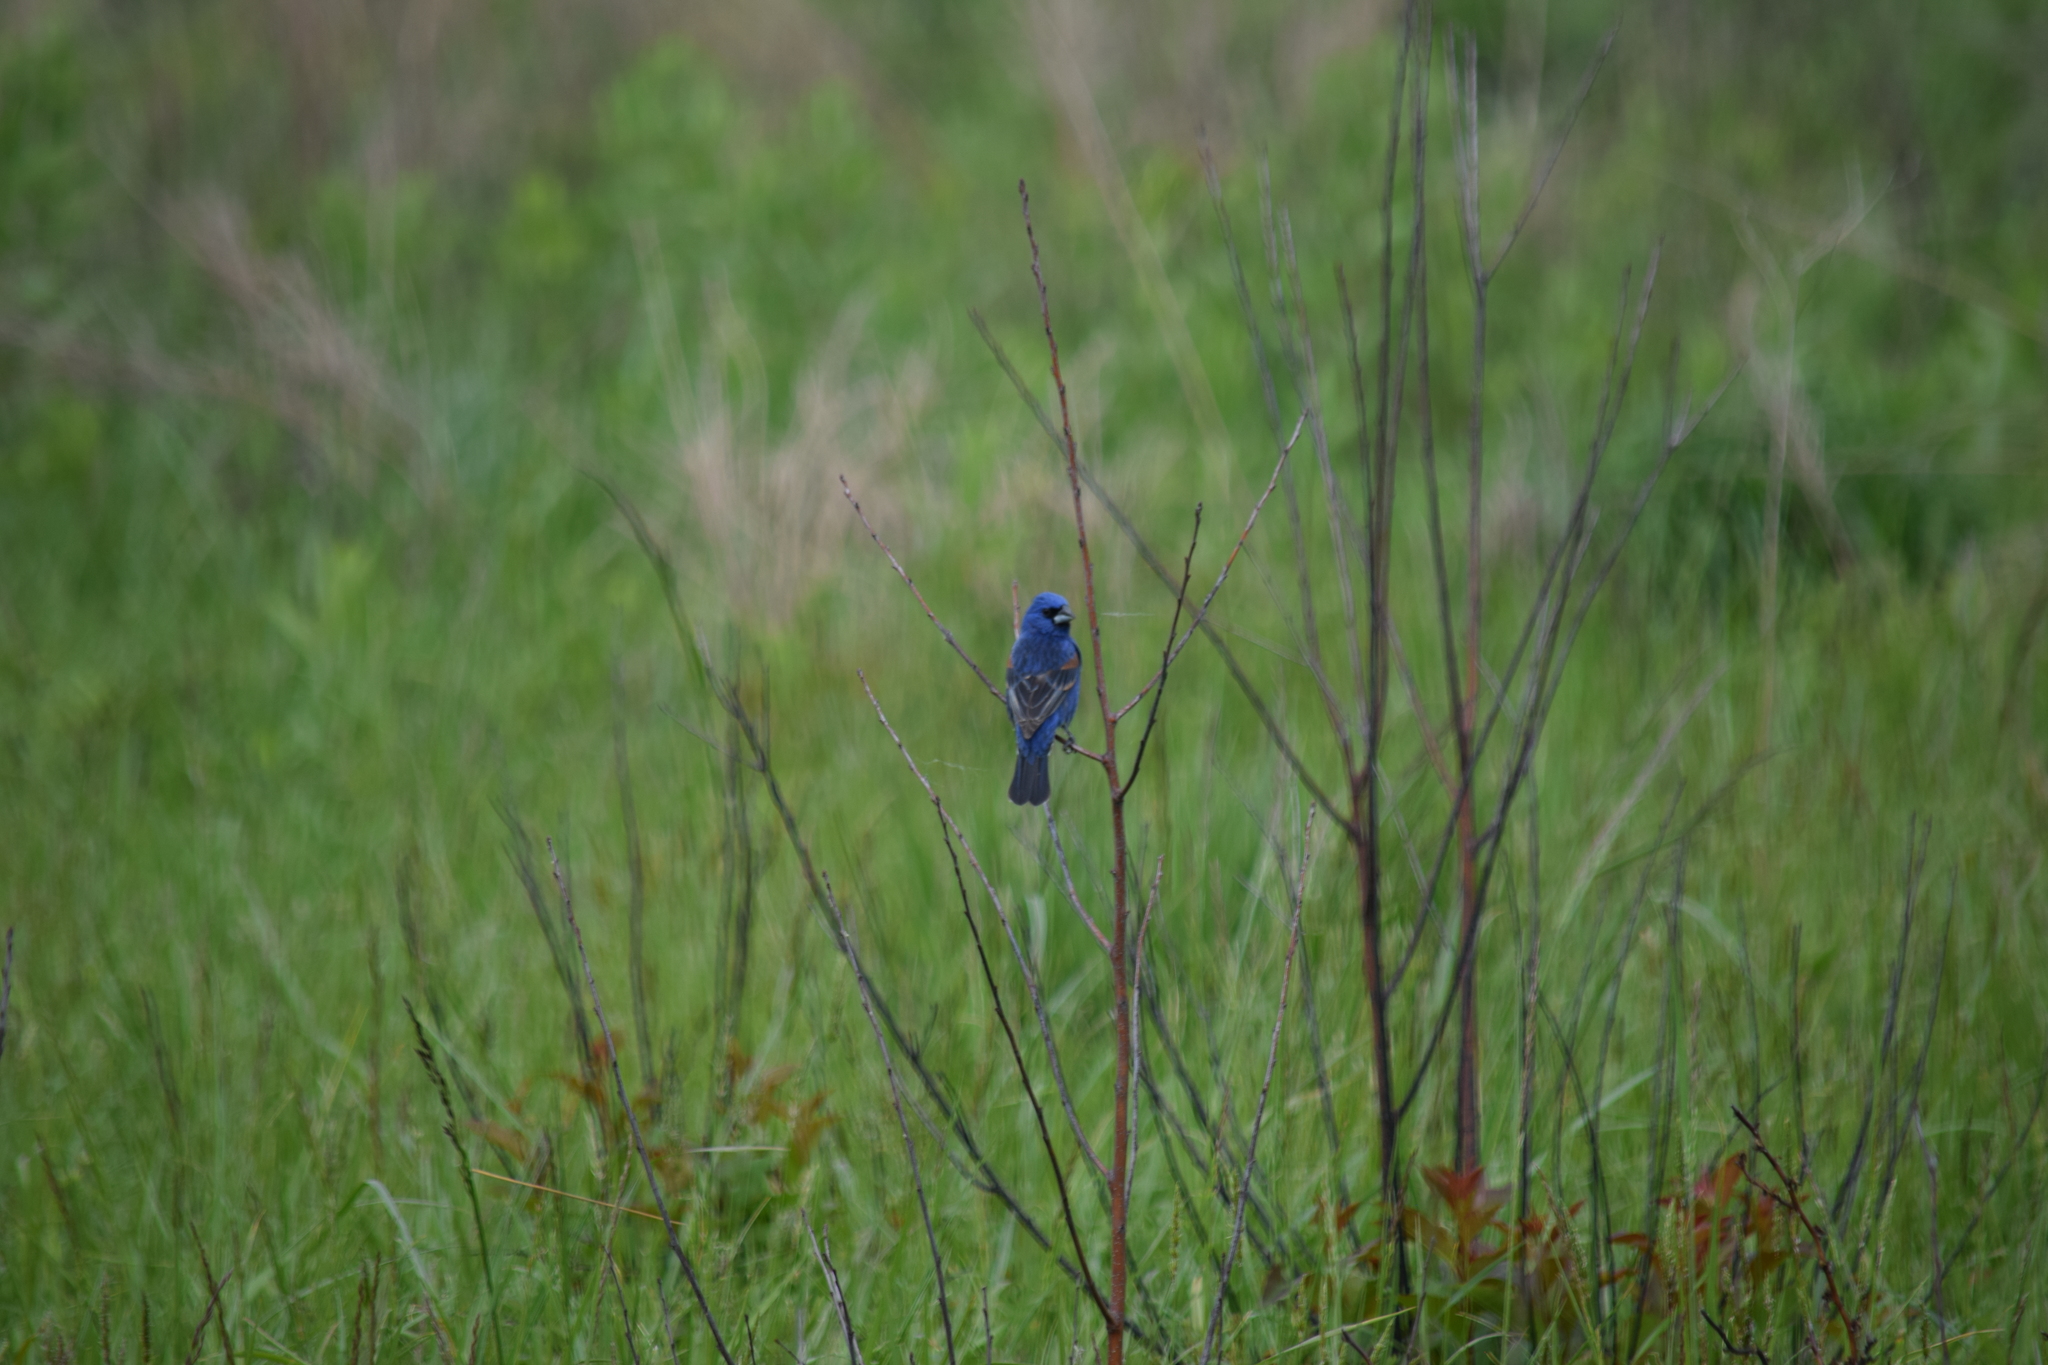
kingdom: Animalia
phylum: Chordata
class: Aves
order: Passeriformes
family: Cardinalidae
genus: Passerina
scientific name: Passerina caerulea
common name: Blue grosbeak
